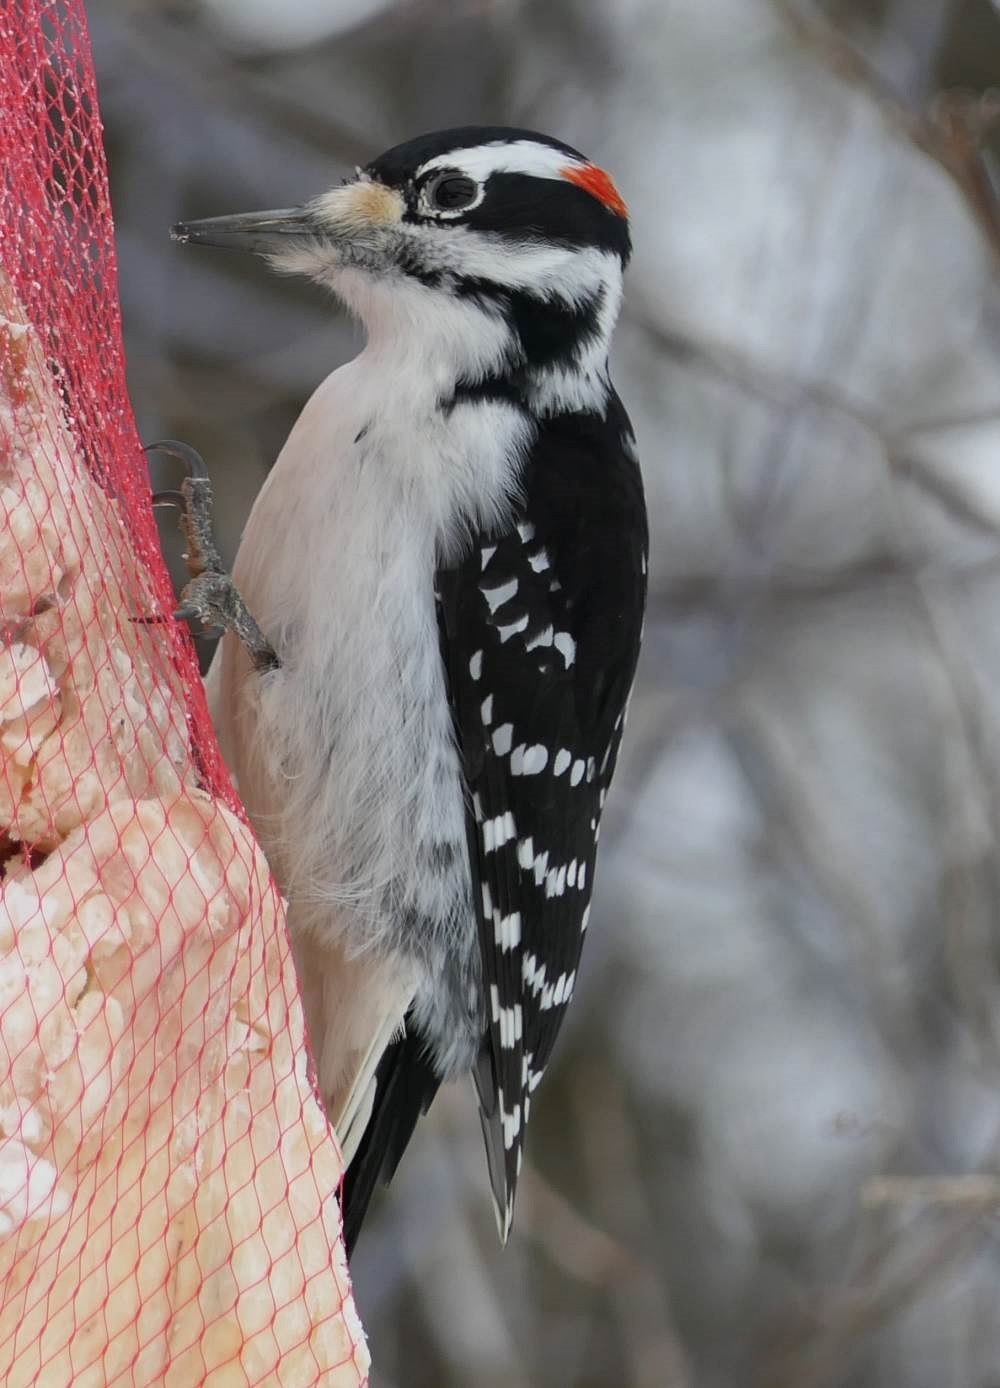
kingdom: Animalia
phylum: Chordata
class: Aves
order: Piciformes
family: Picidae
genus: Leuconotopicus
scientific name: Leuconotopicus villosus
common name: Hairy woodpecker
